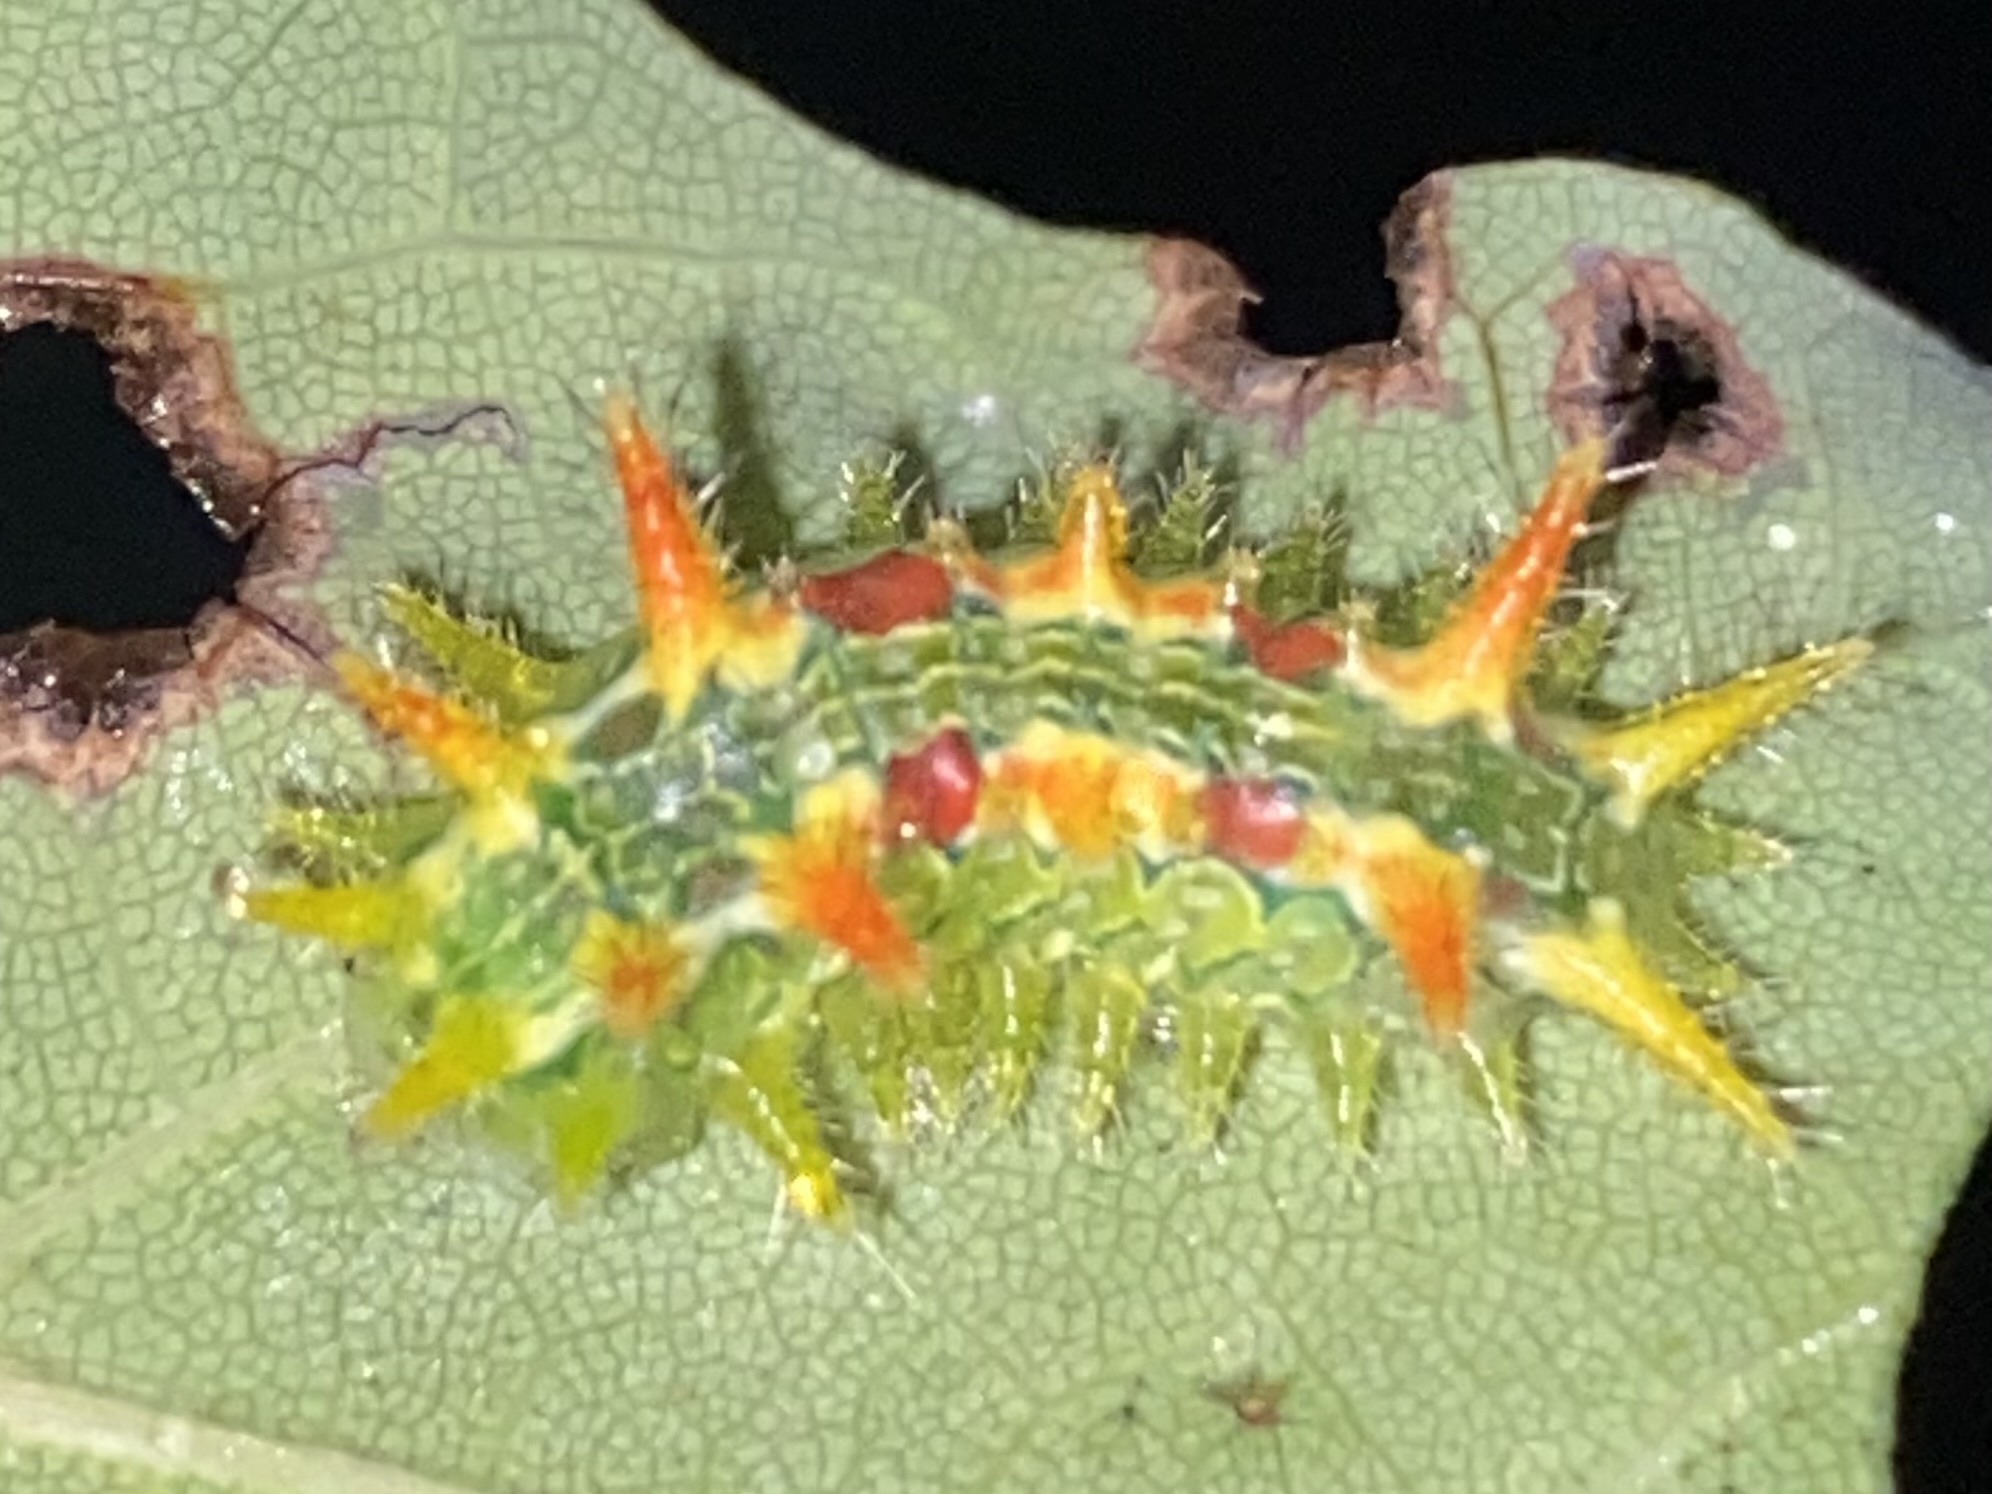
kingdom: Animalia
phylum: Arthropoda
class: Insecta
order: Lepidoptera
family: Limacodidae
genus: Euclea
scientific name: Euclea delphinii
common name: Spiny oak-slug moth
